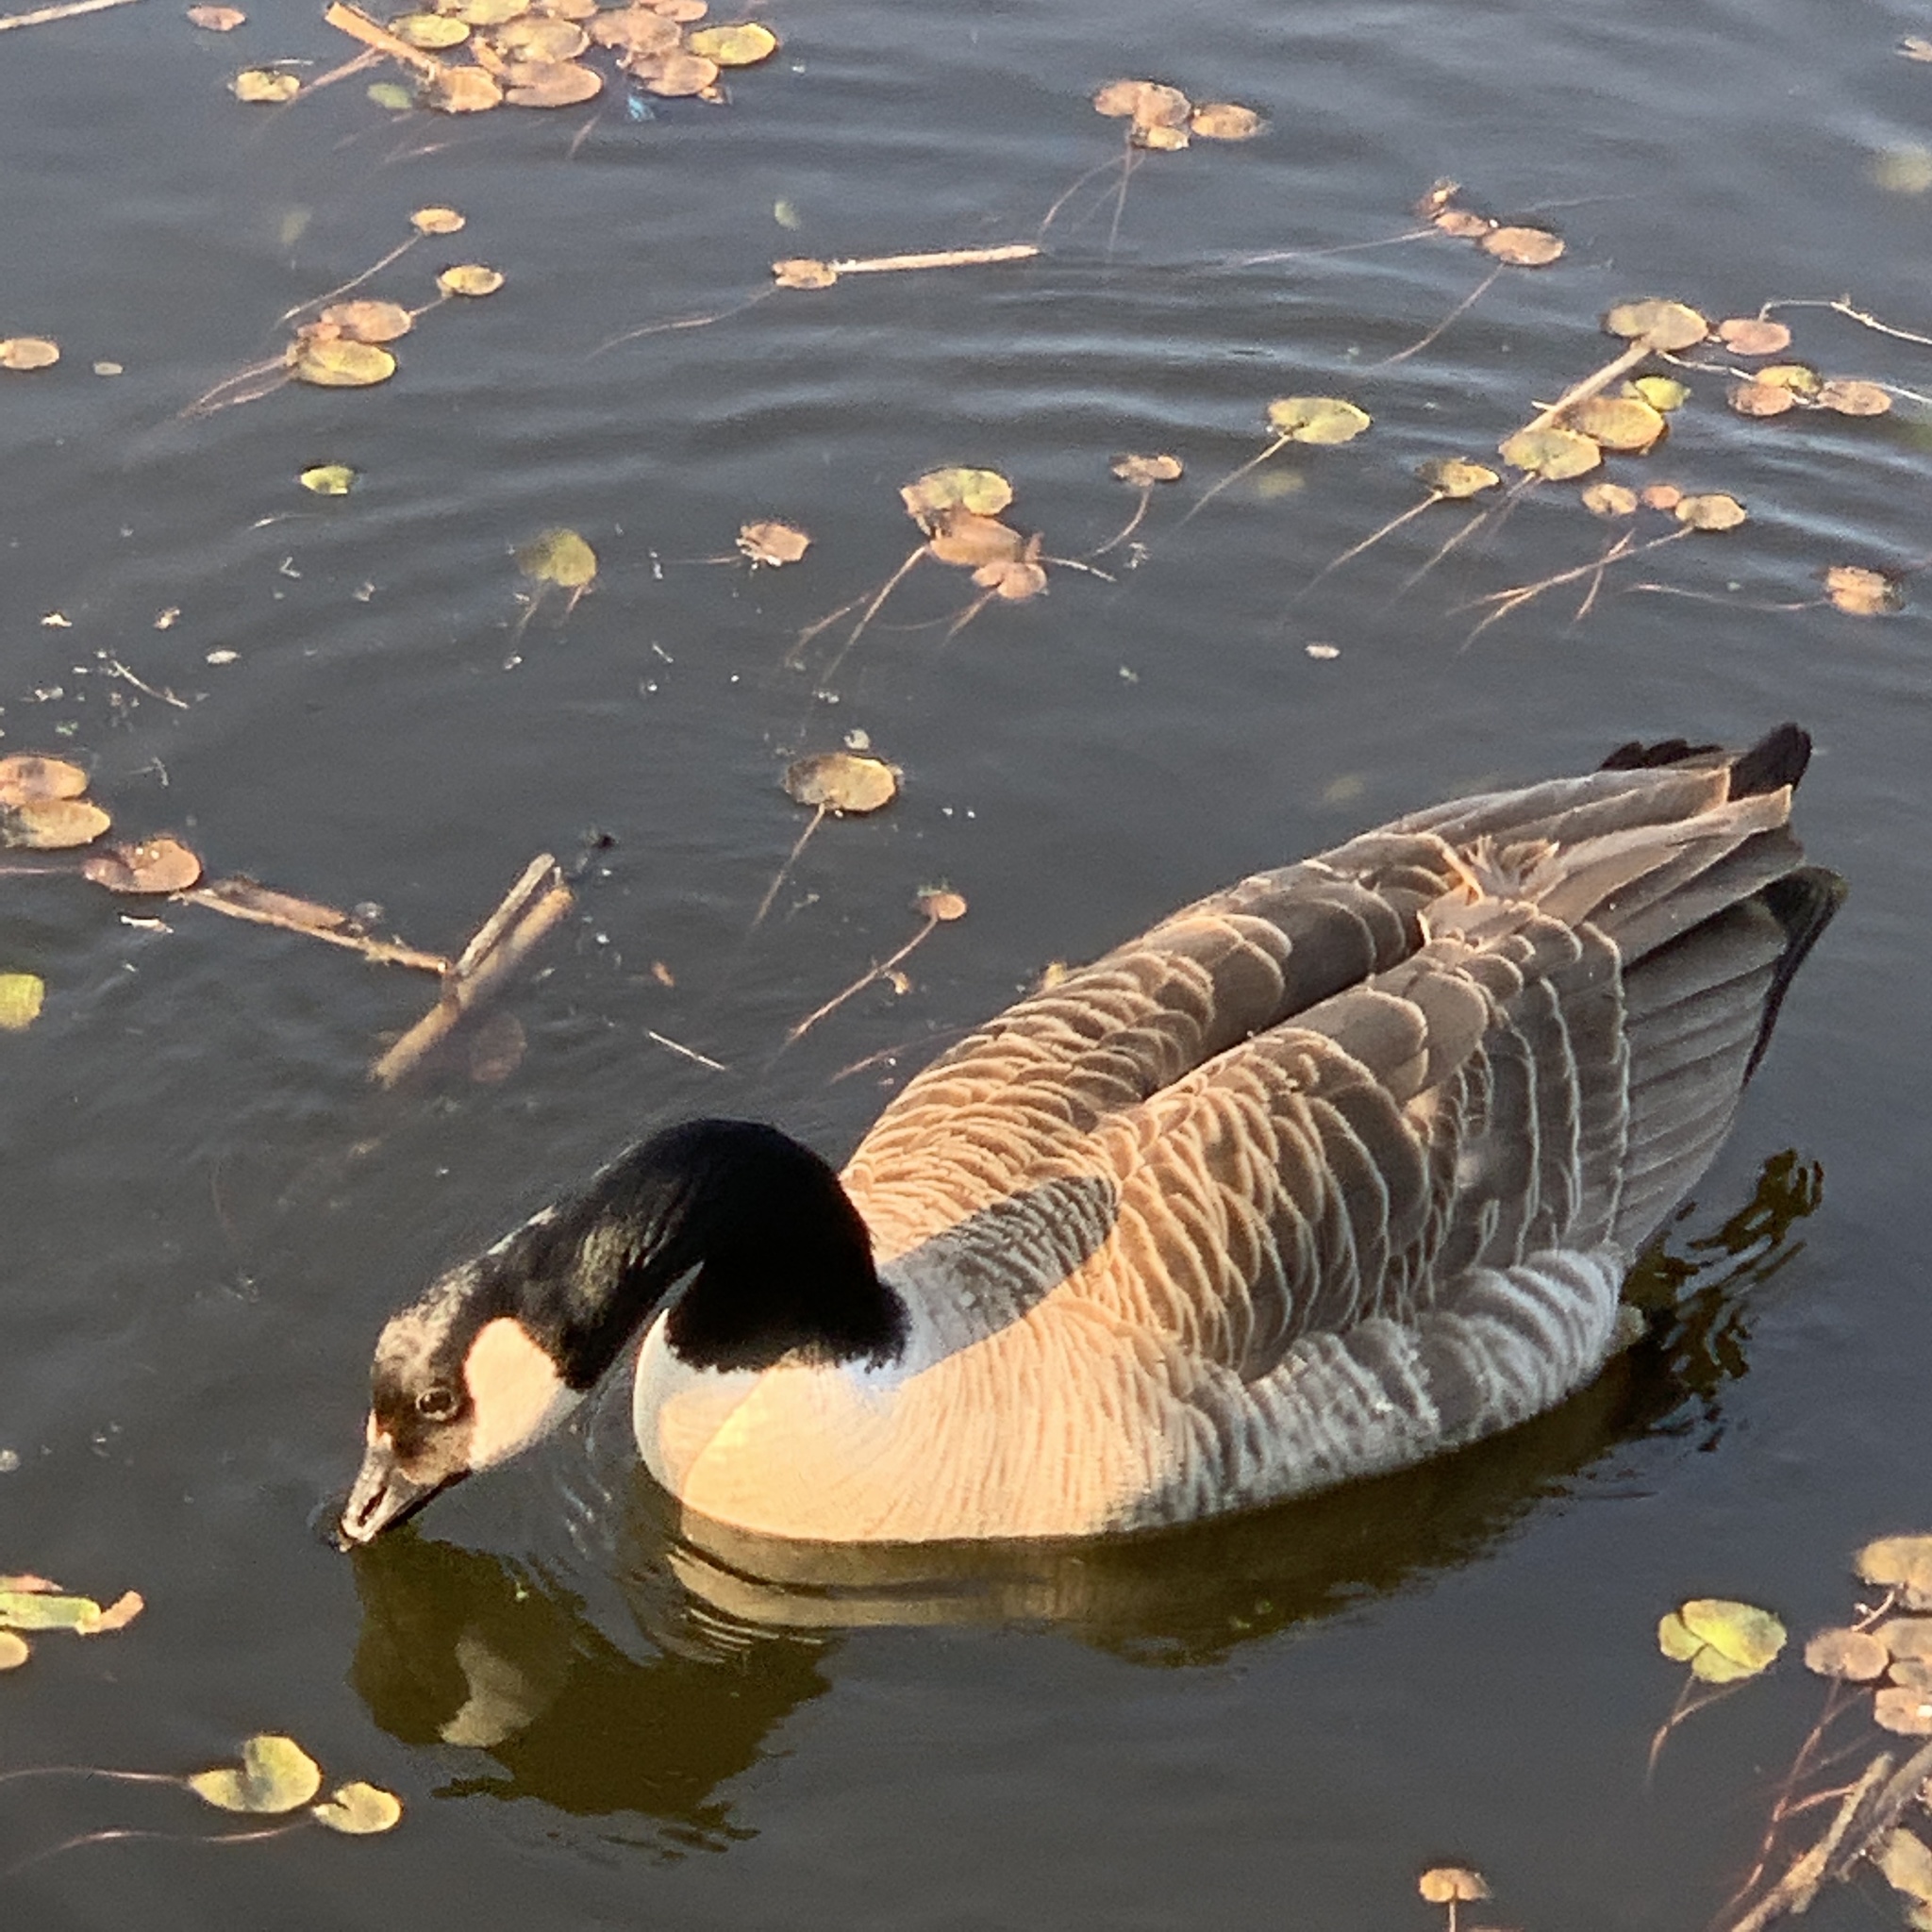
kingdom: Animalia
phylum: Chordata
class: Aves
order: Anseriformes
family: Anatidae
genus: Branta
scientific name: Branta canadensis
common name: Canada goose
